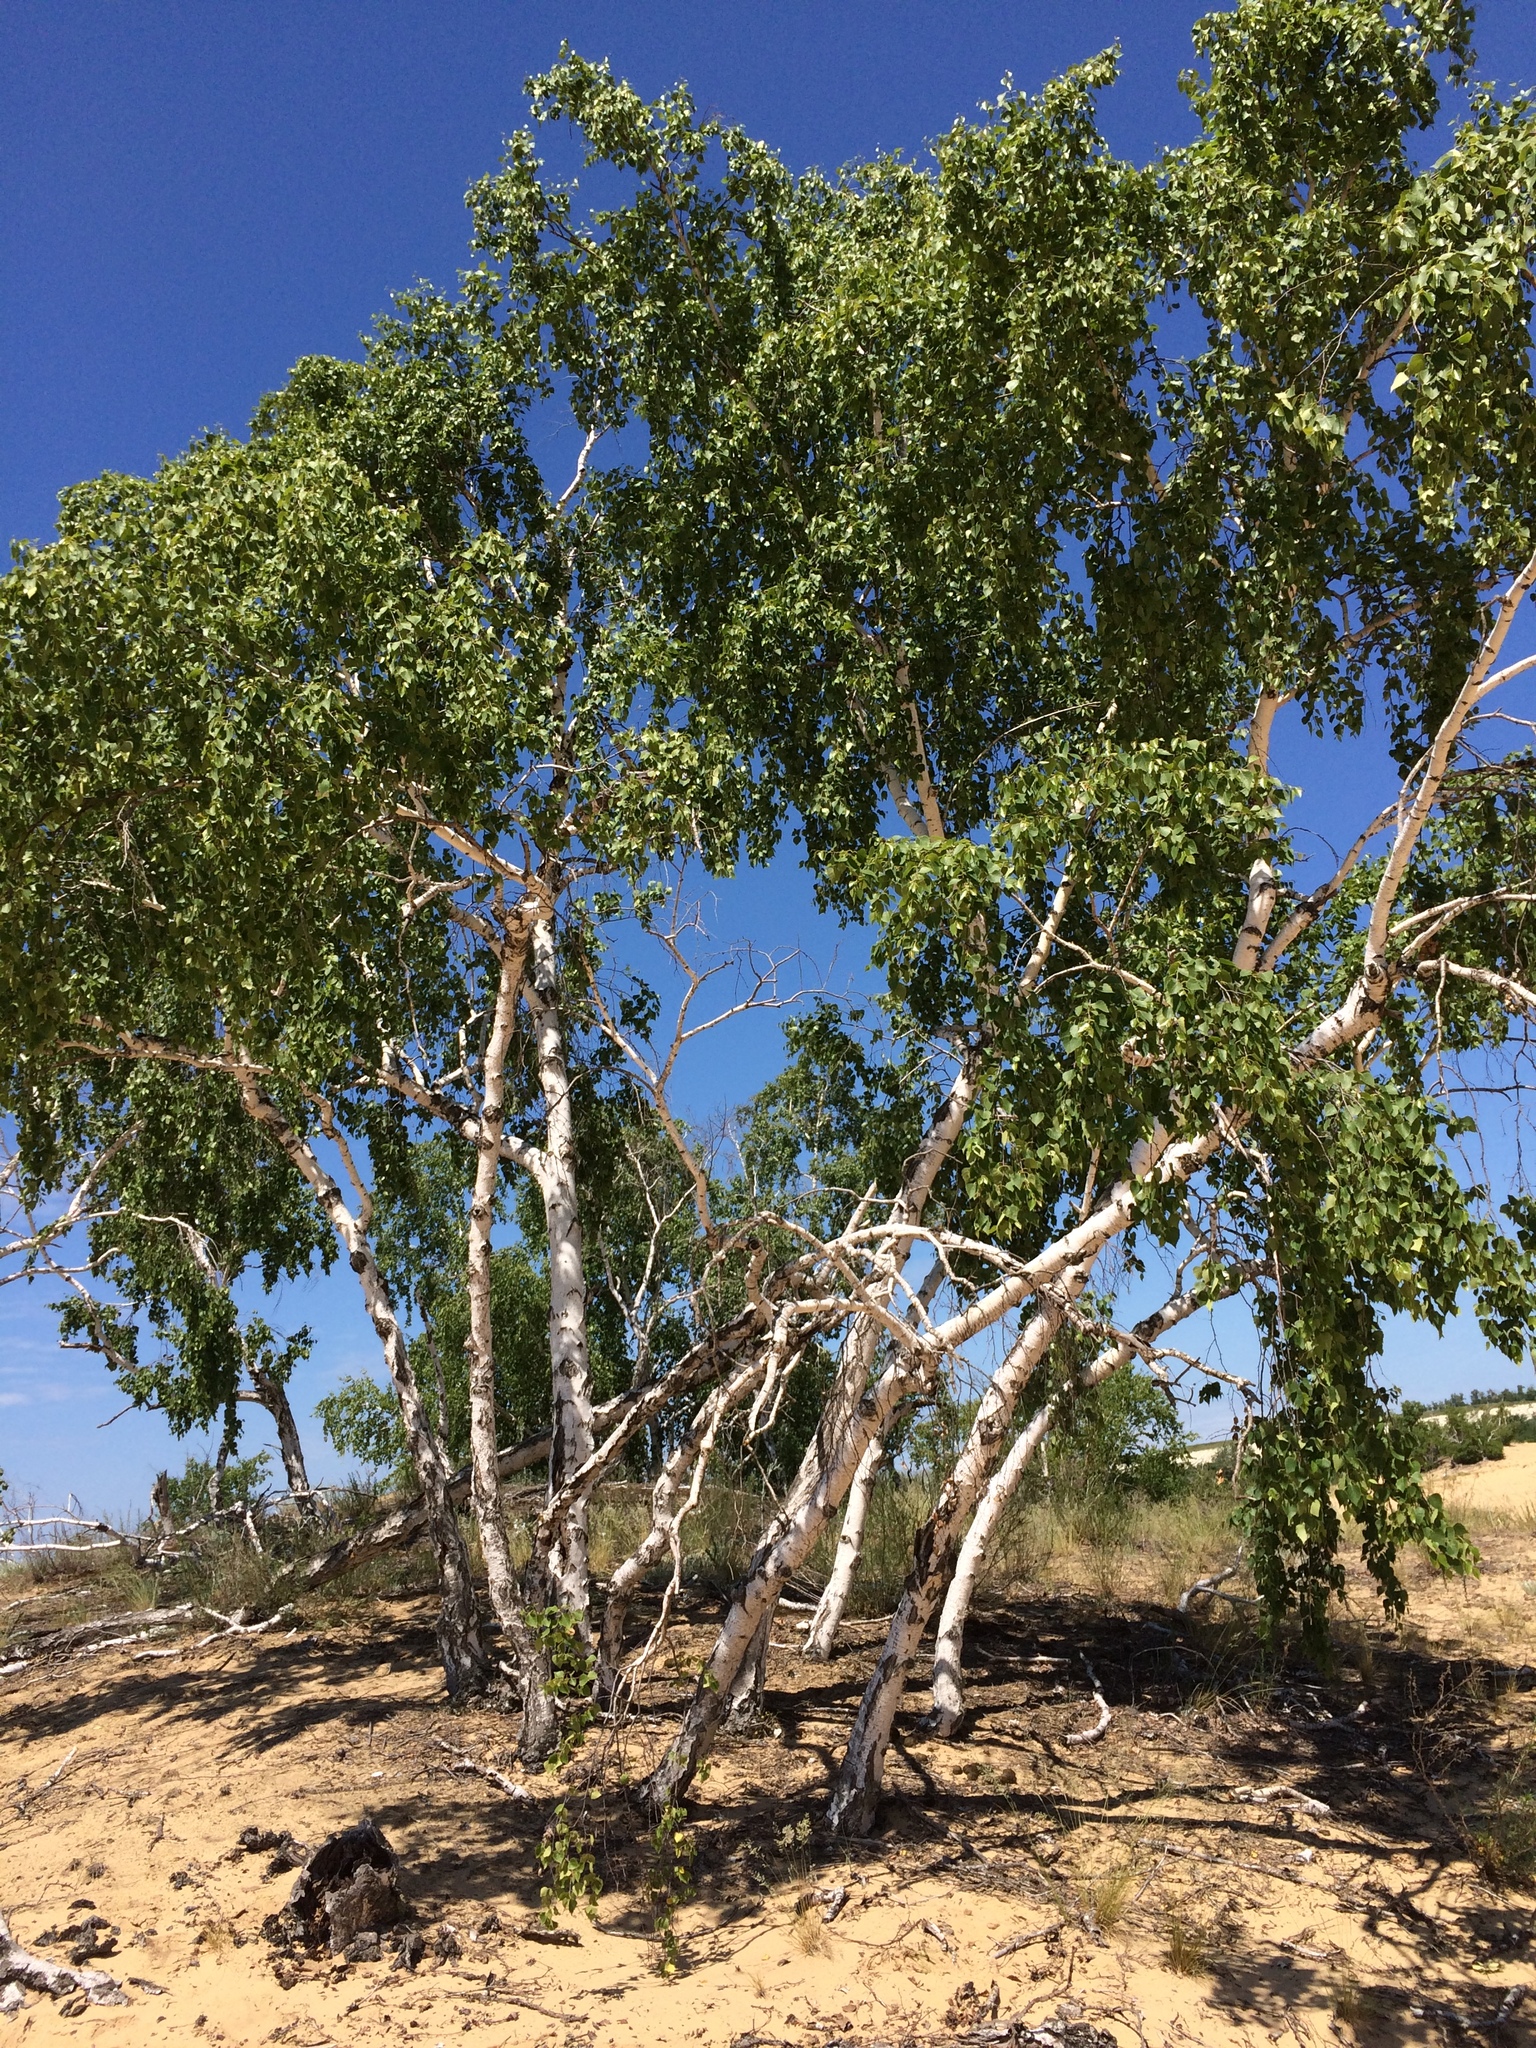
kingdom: Plantae
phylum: Tracheophyta
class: Magnoliopsida
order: Fagales
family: Betulaceae
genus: Betula
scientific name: Betula pubescens
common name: Downy birch
